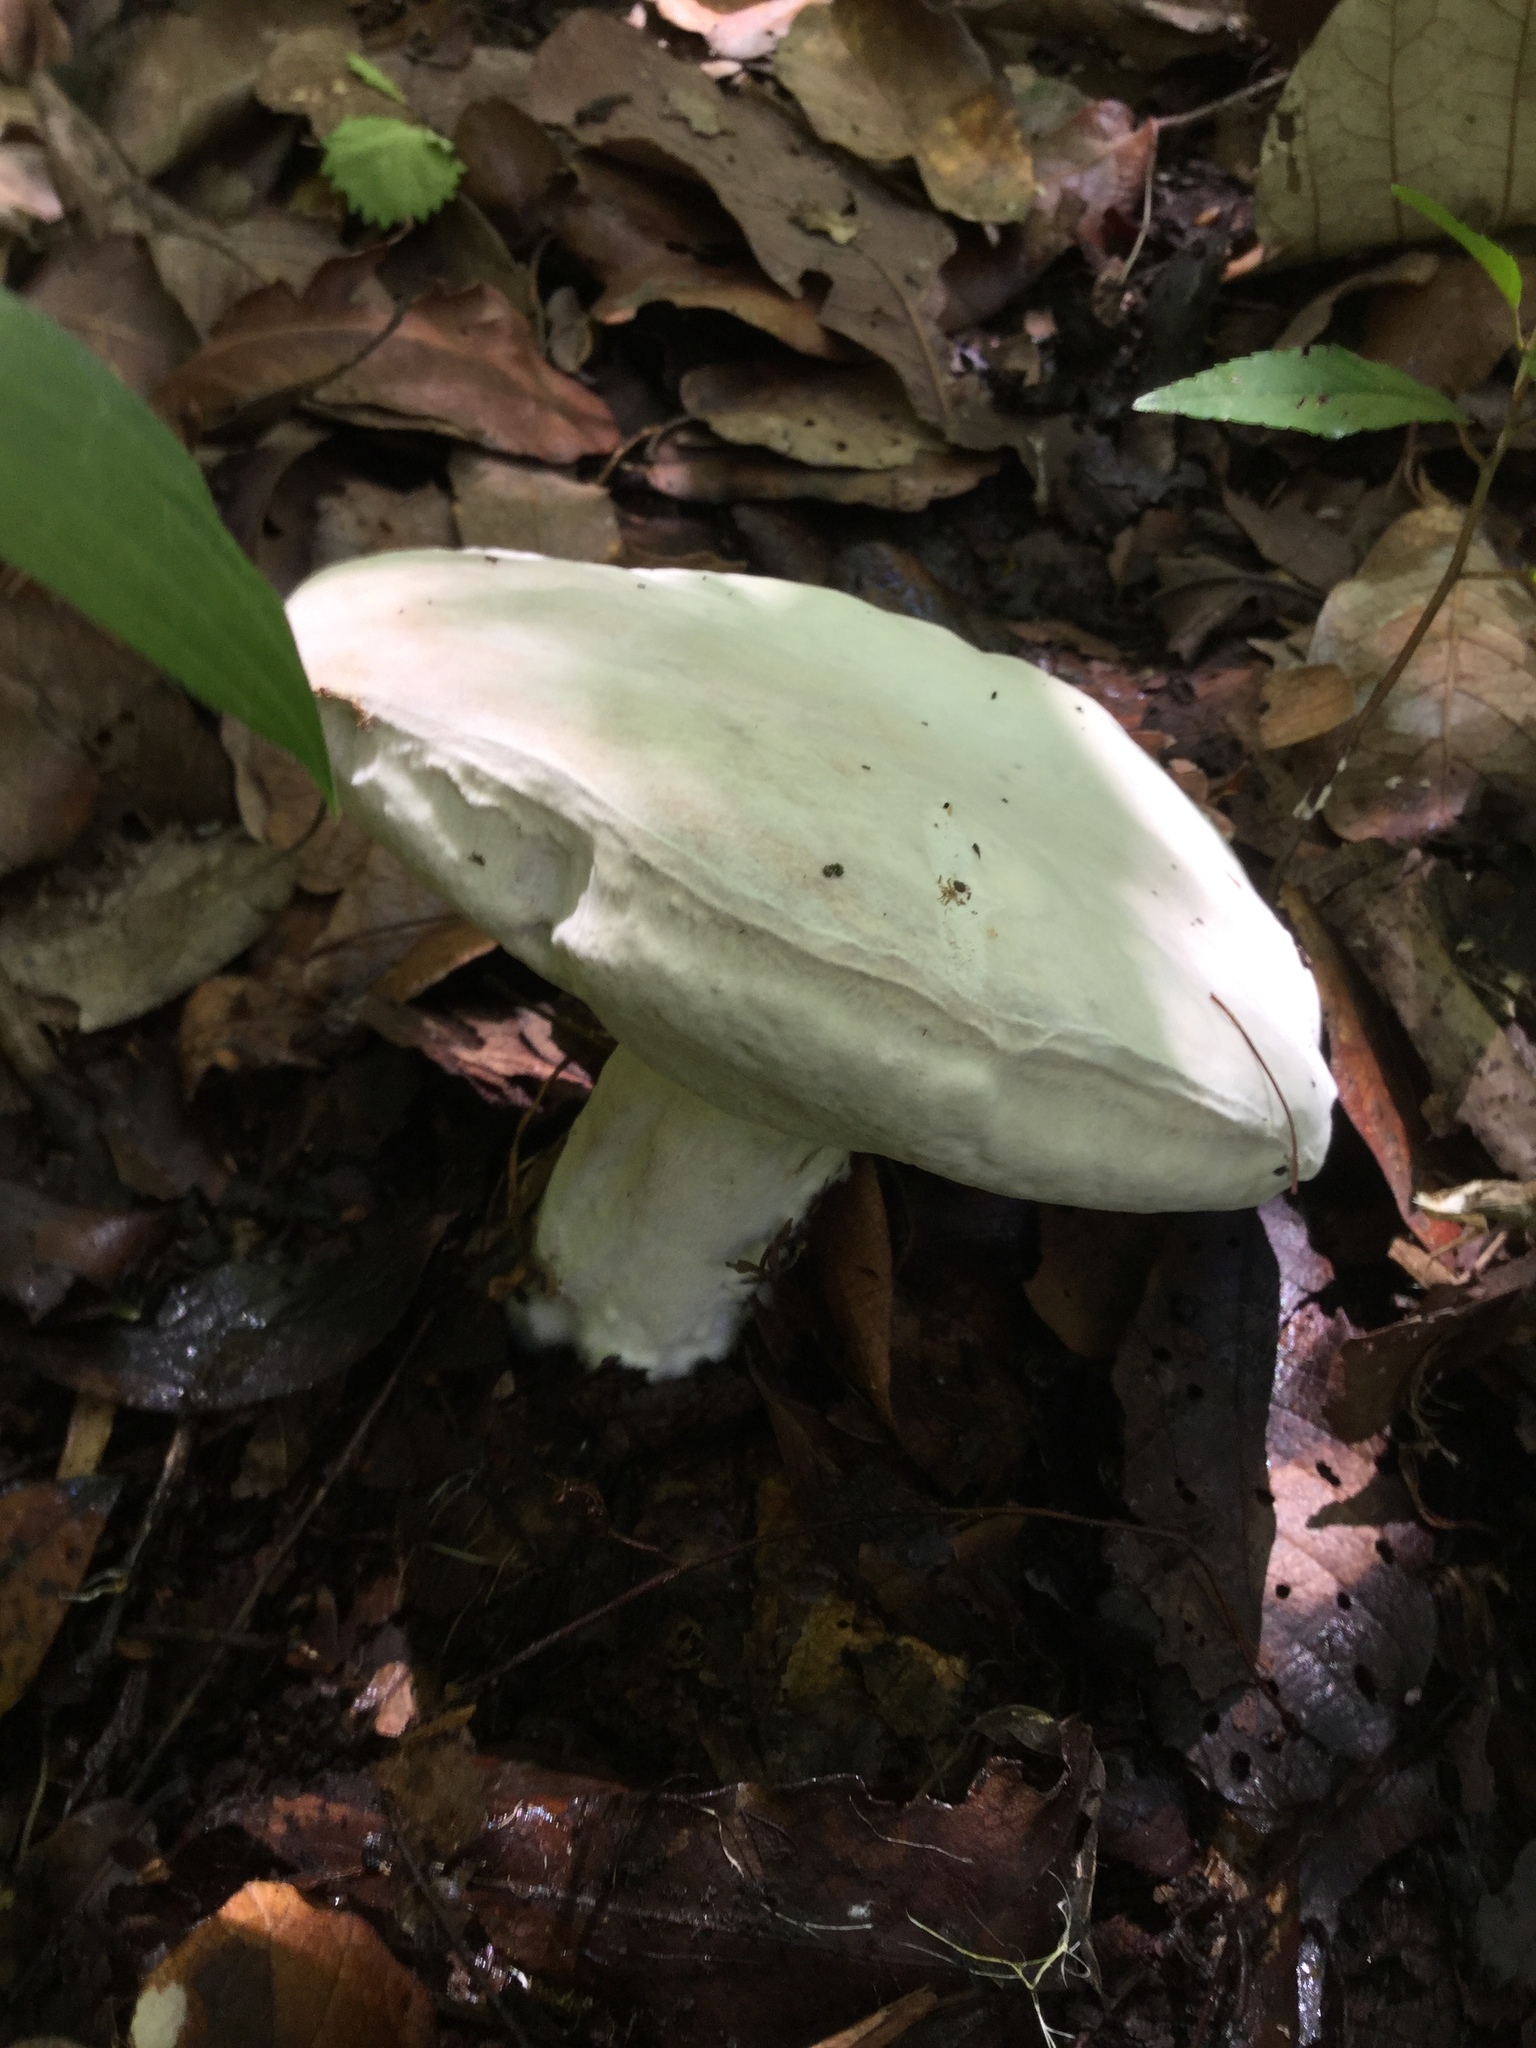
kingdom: Fungi
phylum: Ascomycota
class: Sordariomycetes
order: Hypocreales
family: Hypocreaceae
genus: Hypomyces
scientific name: Hypomyces chrysospermus
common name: Bolete mould
